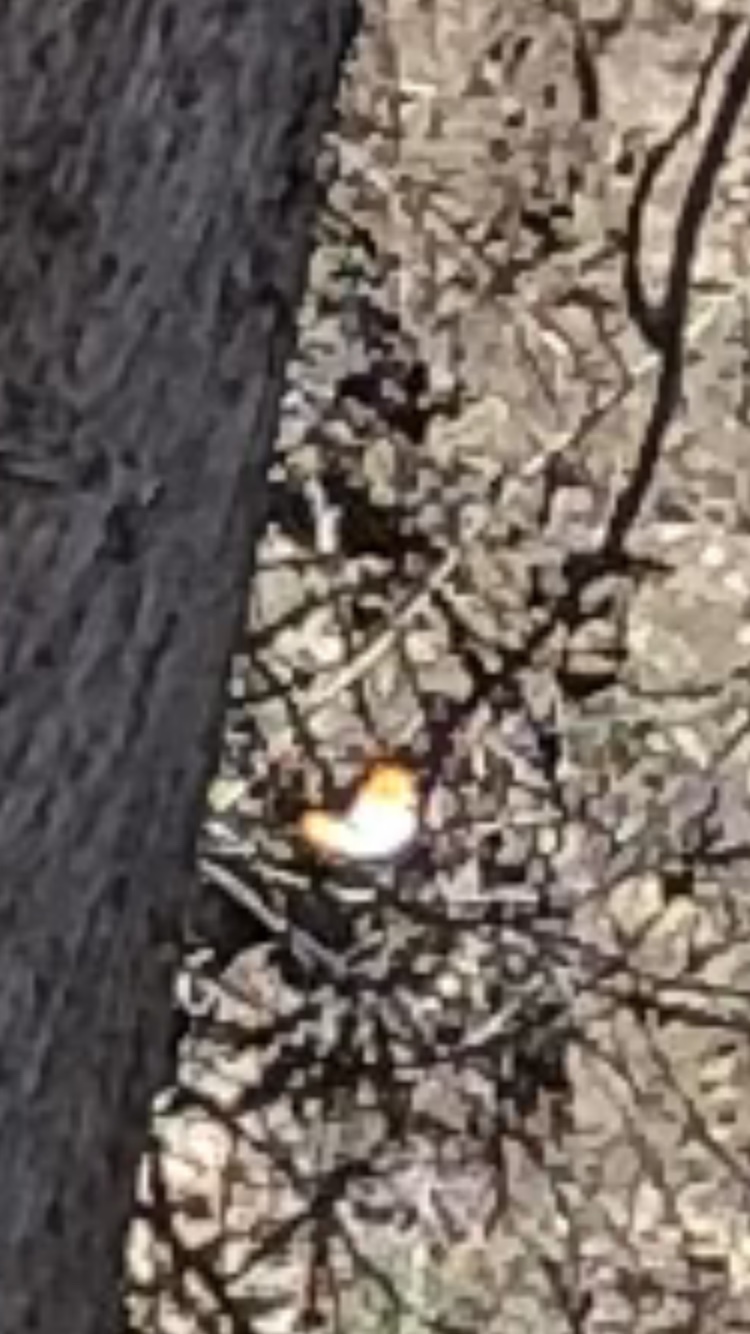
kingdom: Animalia
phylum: Arthropoda
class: Insecta
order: Lepidoptera
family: Pieridae
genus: Anthocharis
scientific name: Anthocharis cardamines
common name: Orange-tip
